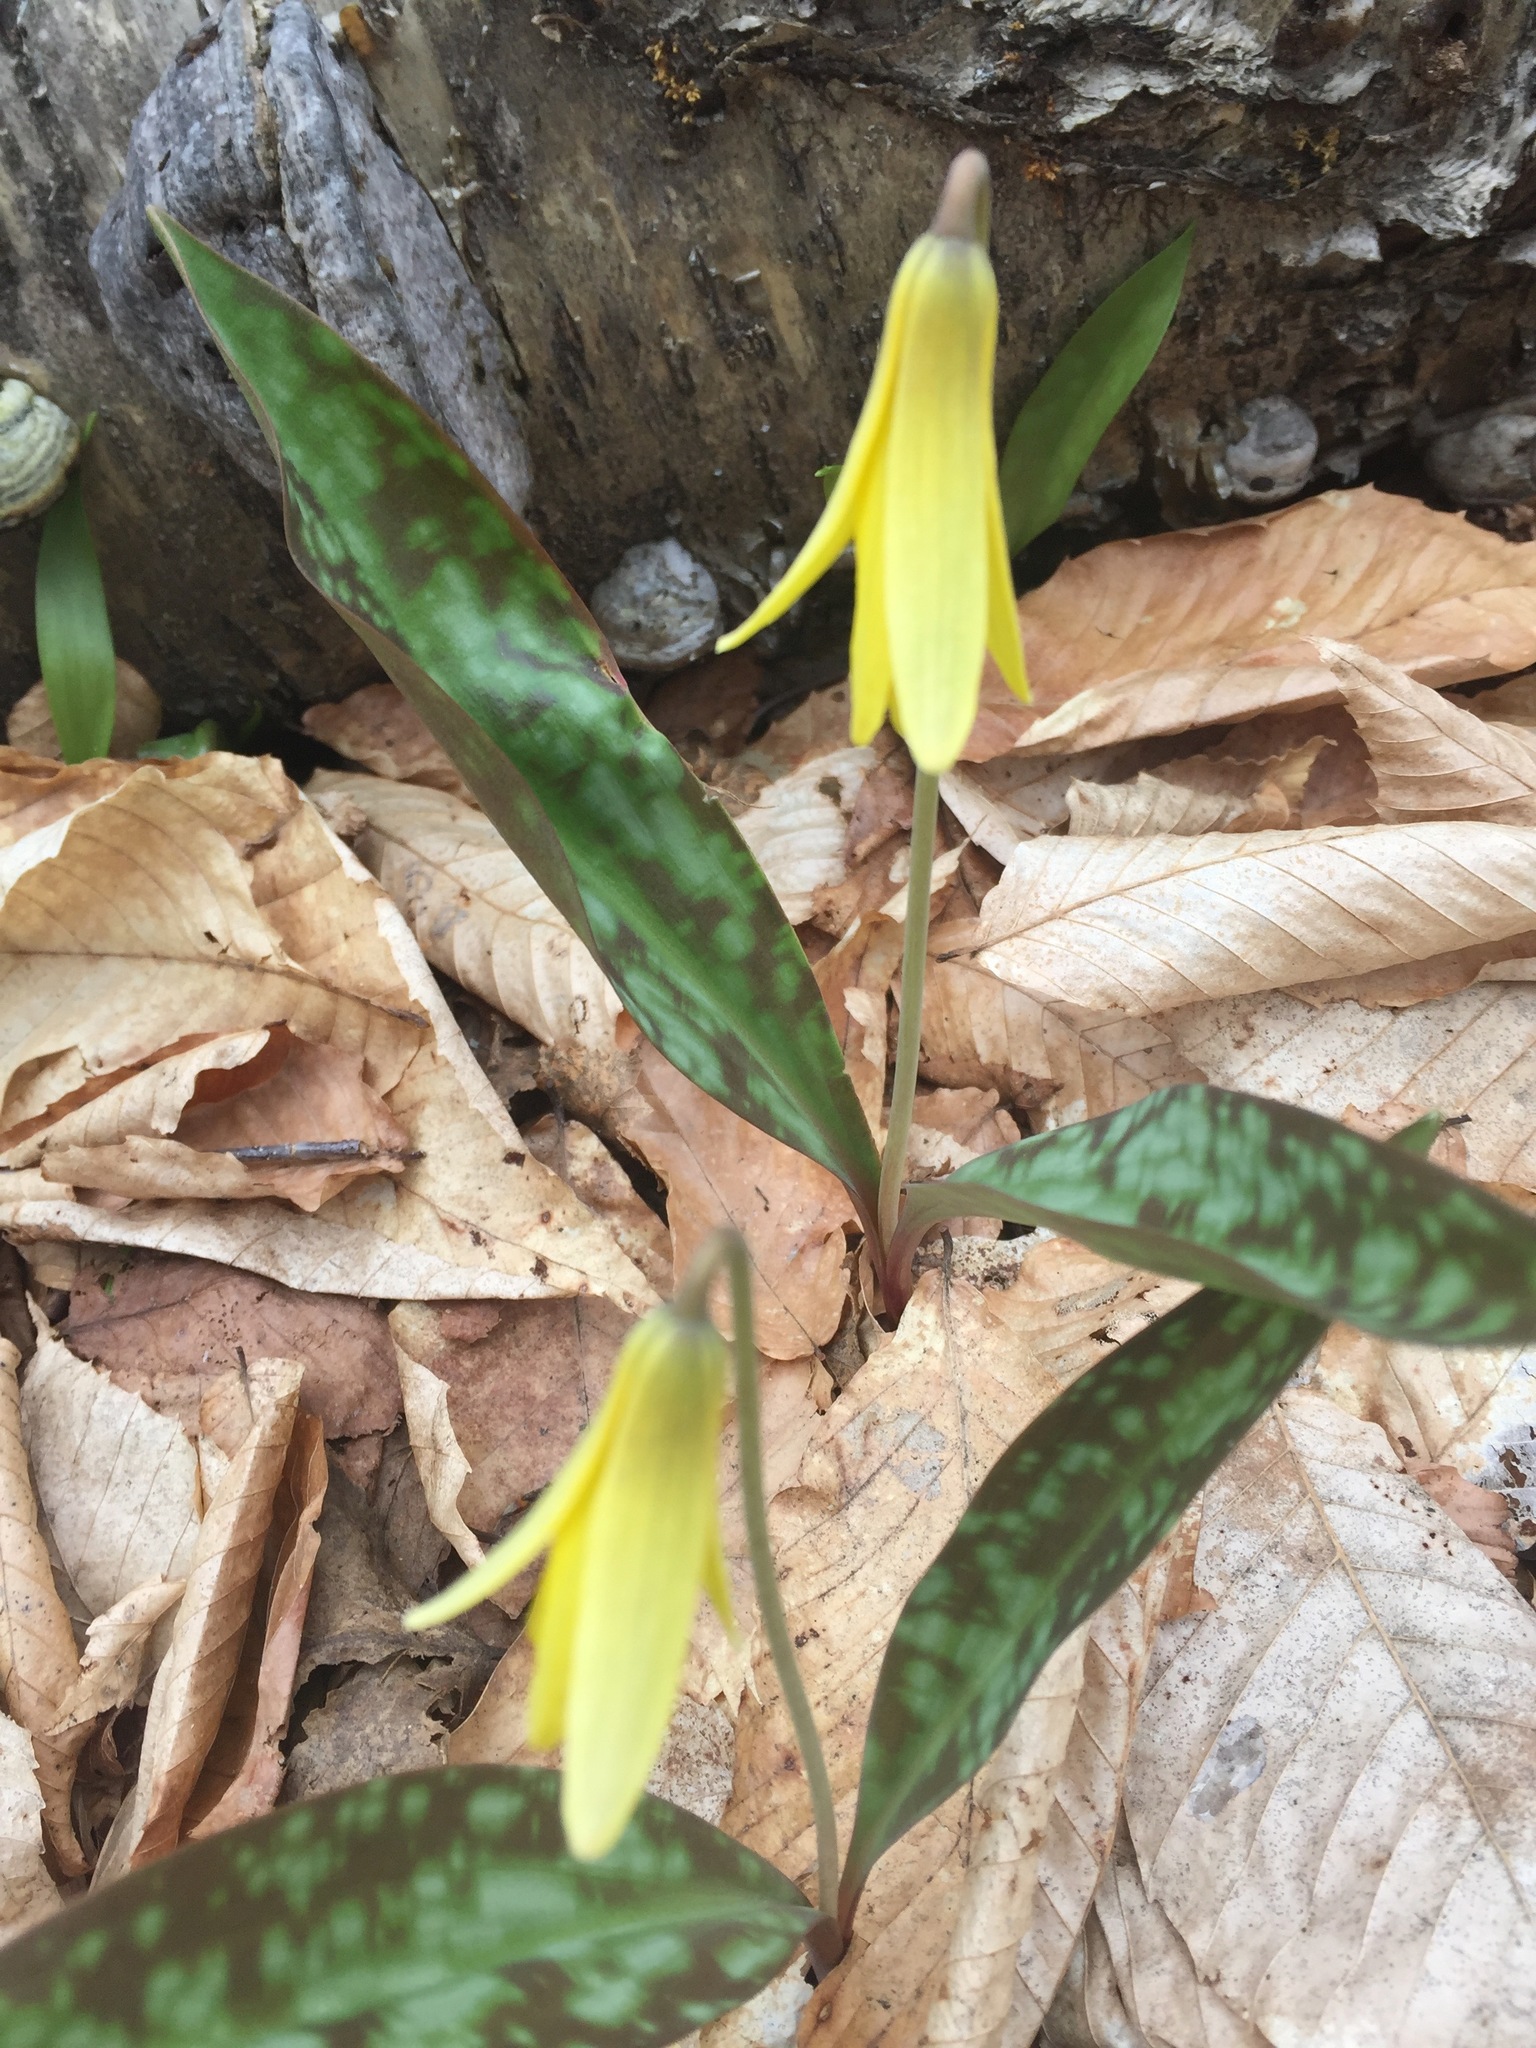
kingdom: Plantae
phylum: Tracheophyta
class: Liliopsida
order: Liliales
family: Liliaceae
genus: Erythronium
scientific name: Erythronium americanum
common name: Yellow adder's-tongue
